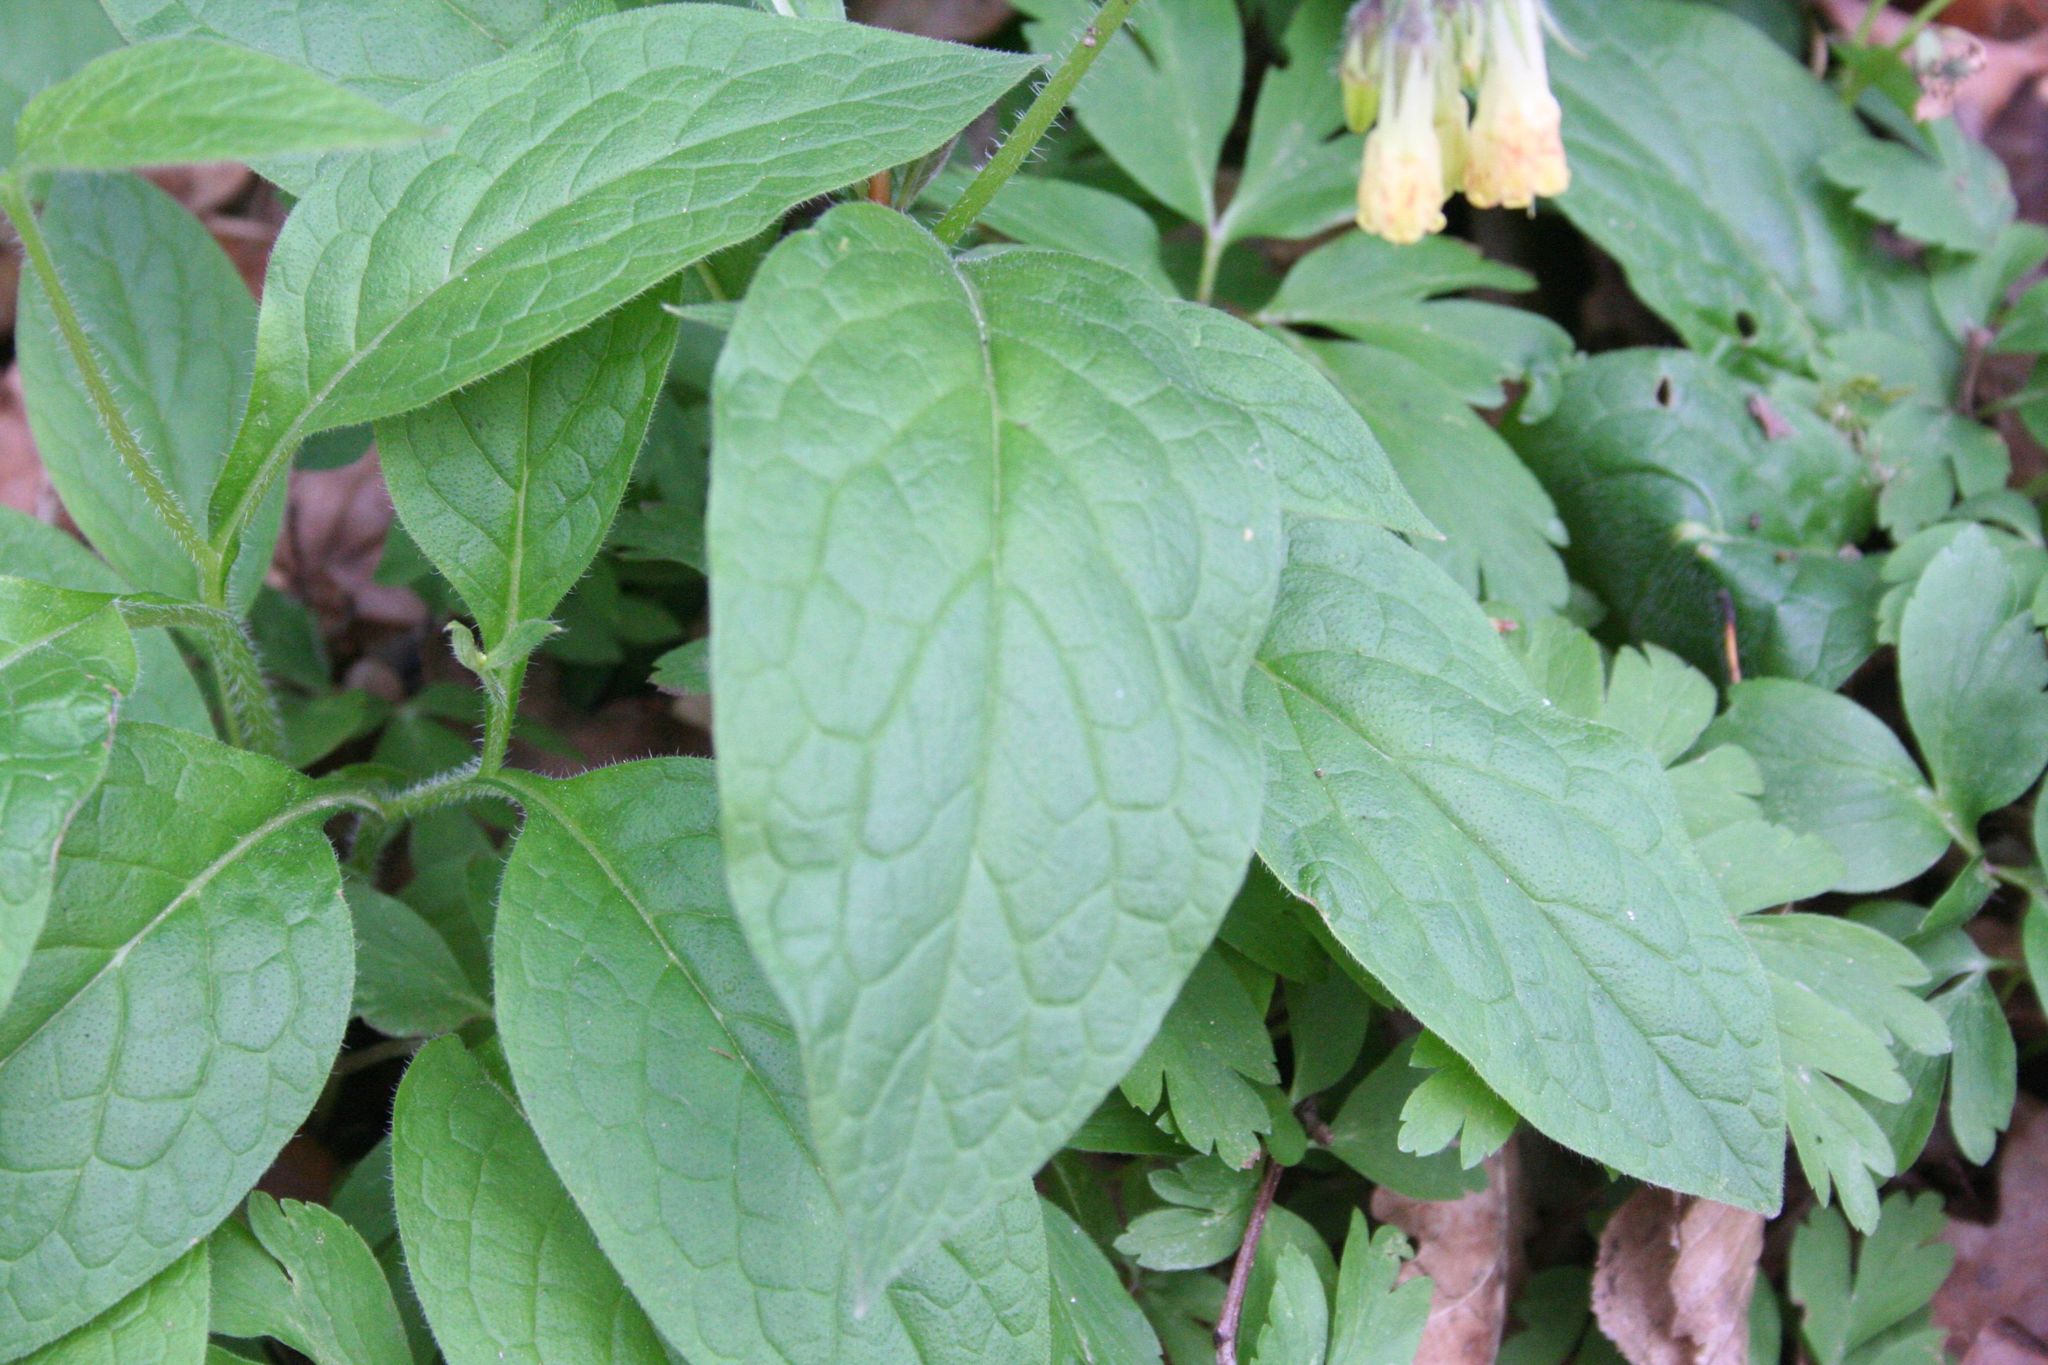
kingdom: Plantae
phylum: Tracheophyta
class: Magnoliopsida
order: Boraginales
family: Boraginaceae
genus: Symphytum
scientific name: Symphytum tuberosum
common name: Tuberous comfrey
